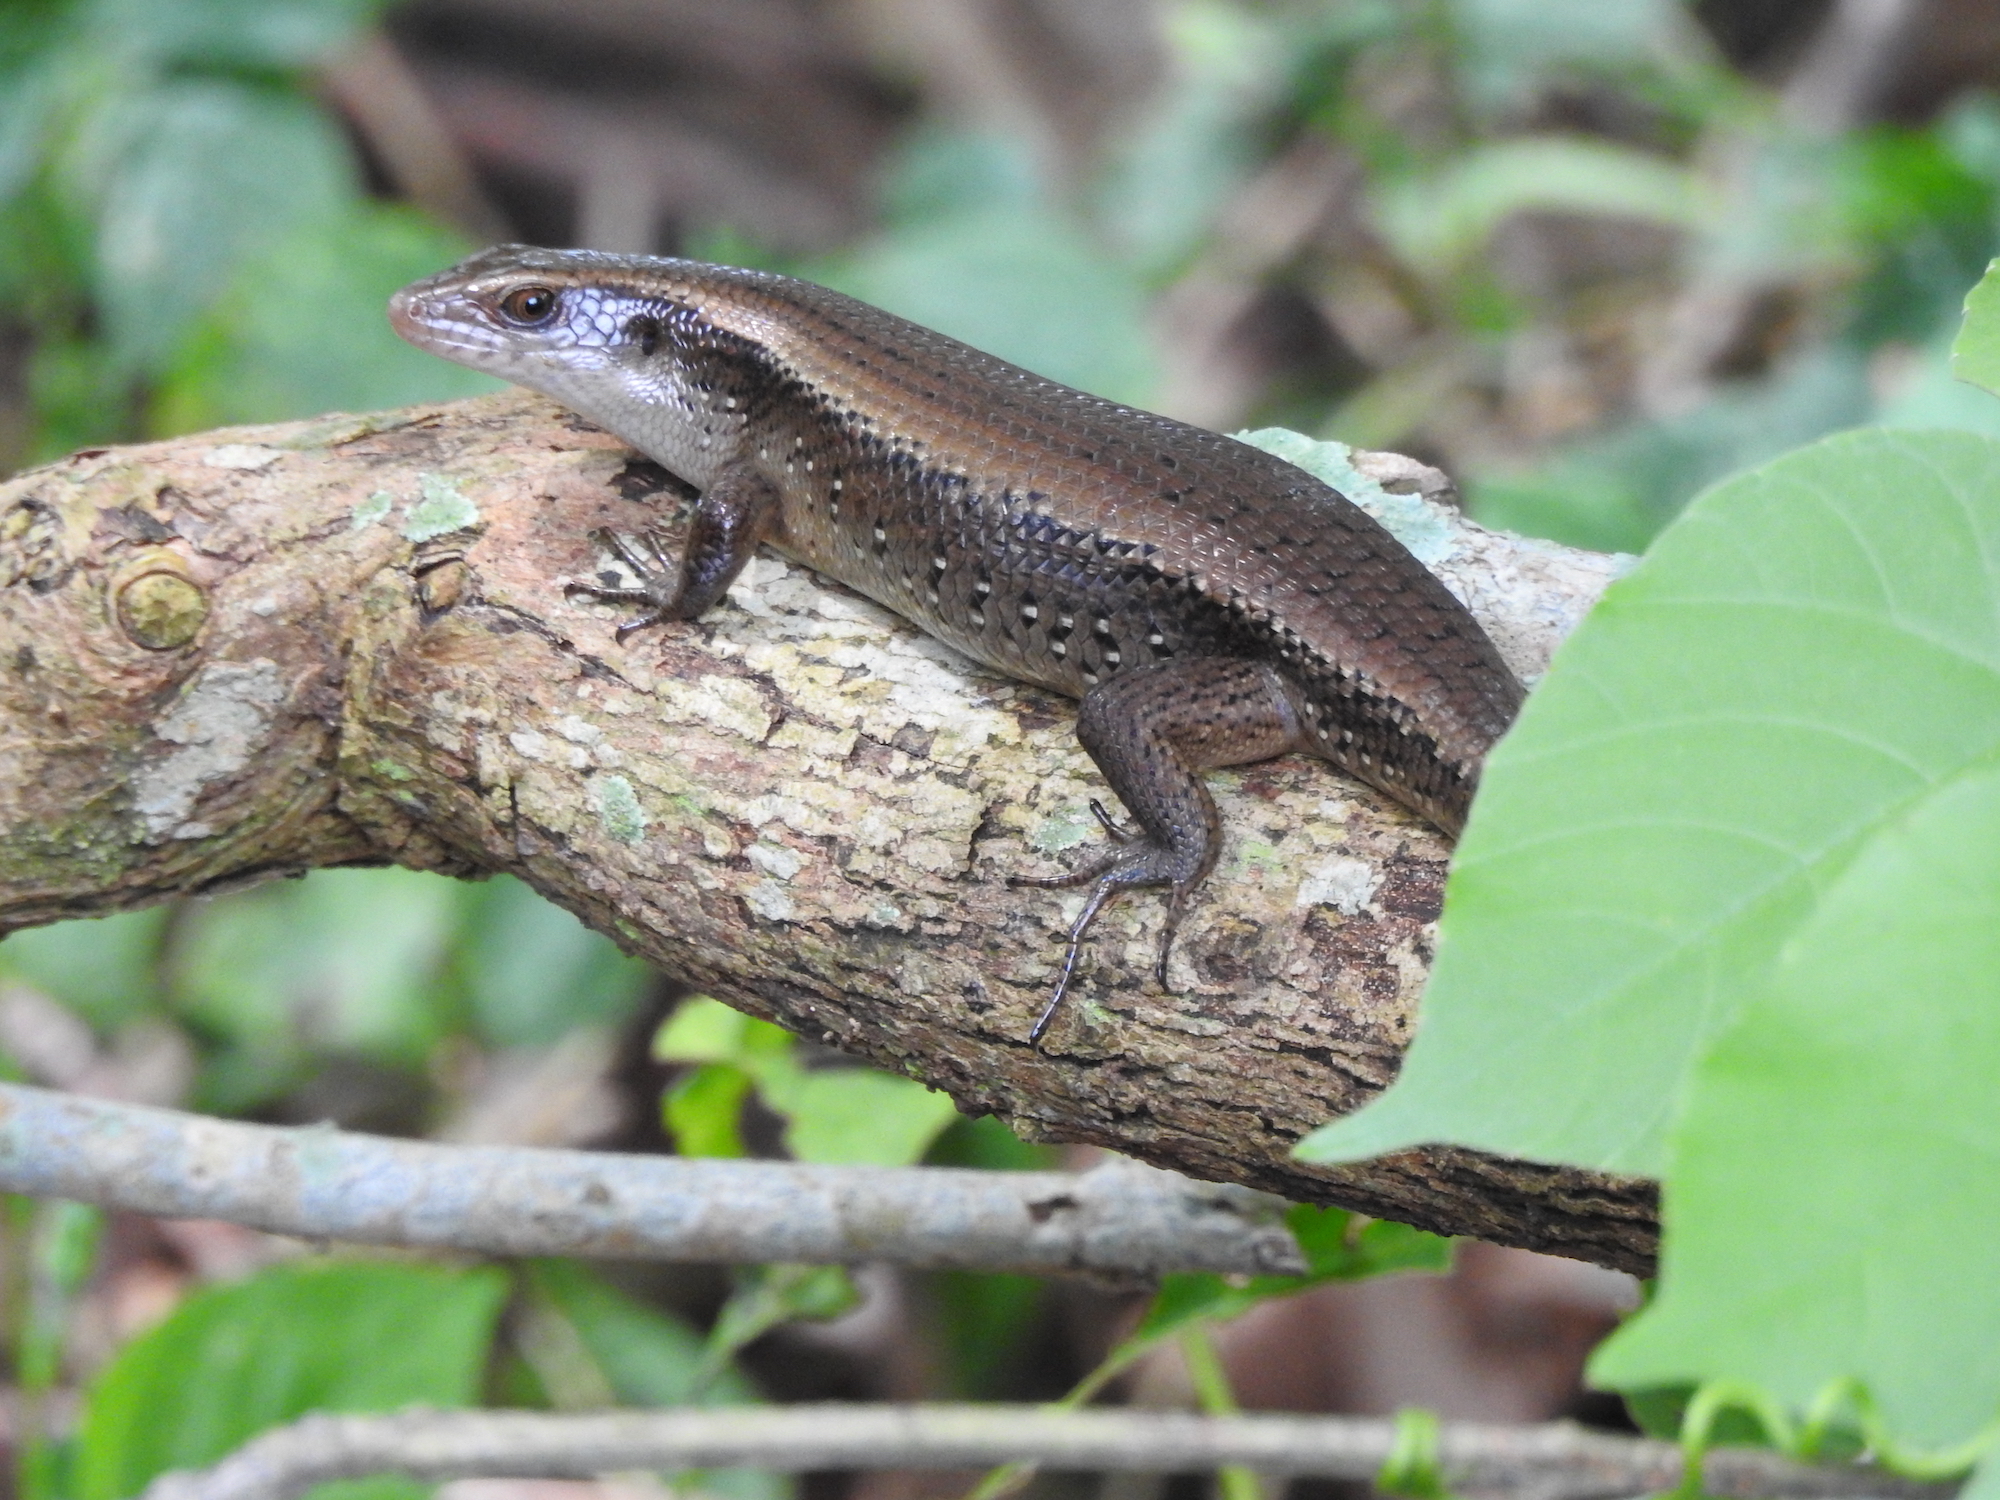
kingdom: Animalia
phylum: Chordata
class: Squamata
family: Scincidae
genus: Eutropis
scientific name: Eutropis multifasciata
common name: Common mabuya
